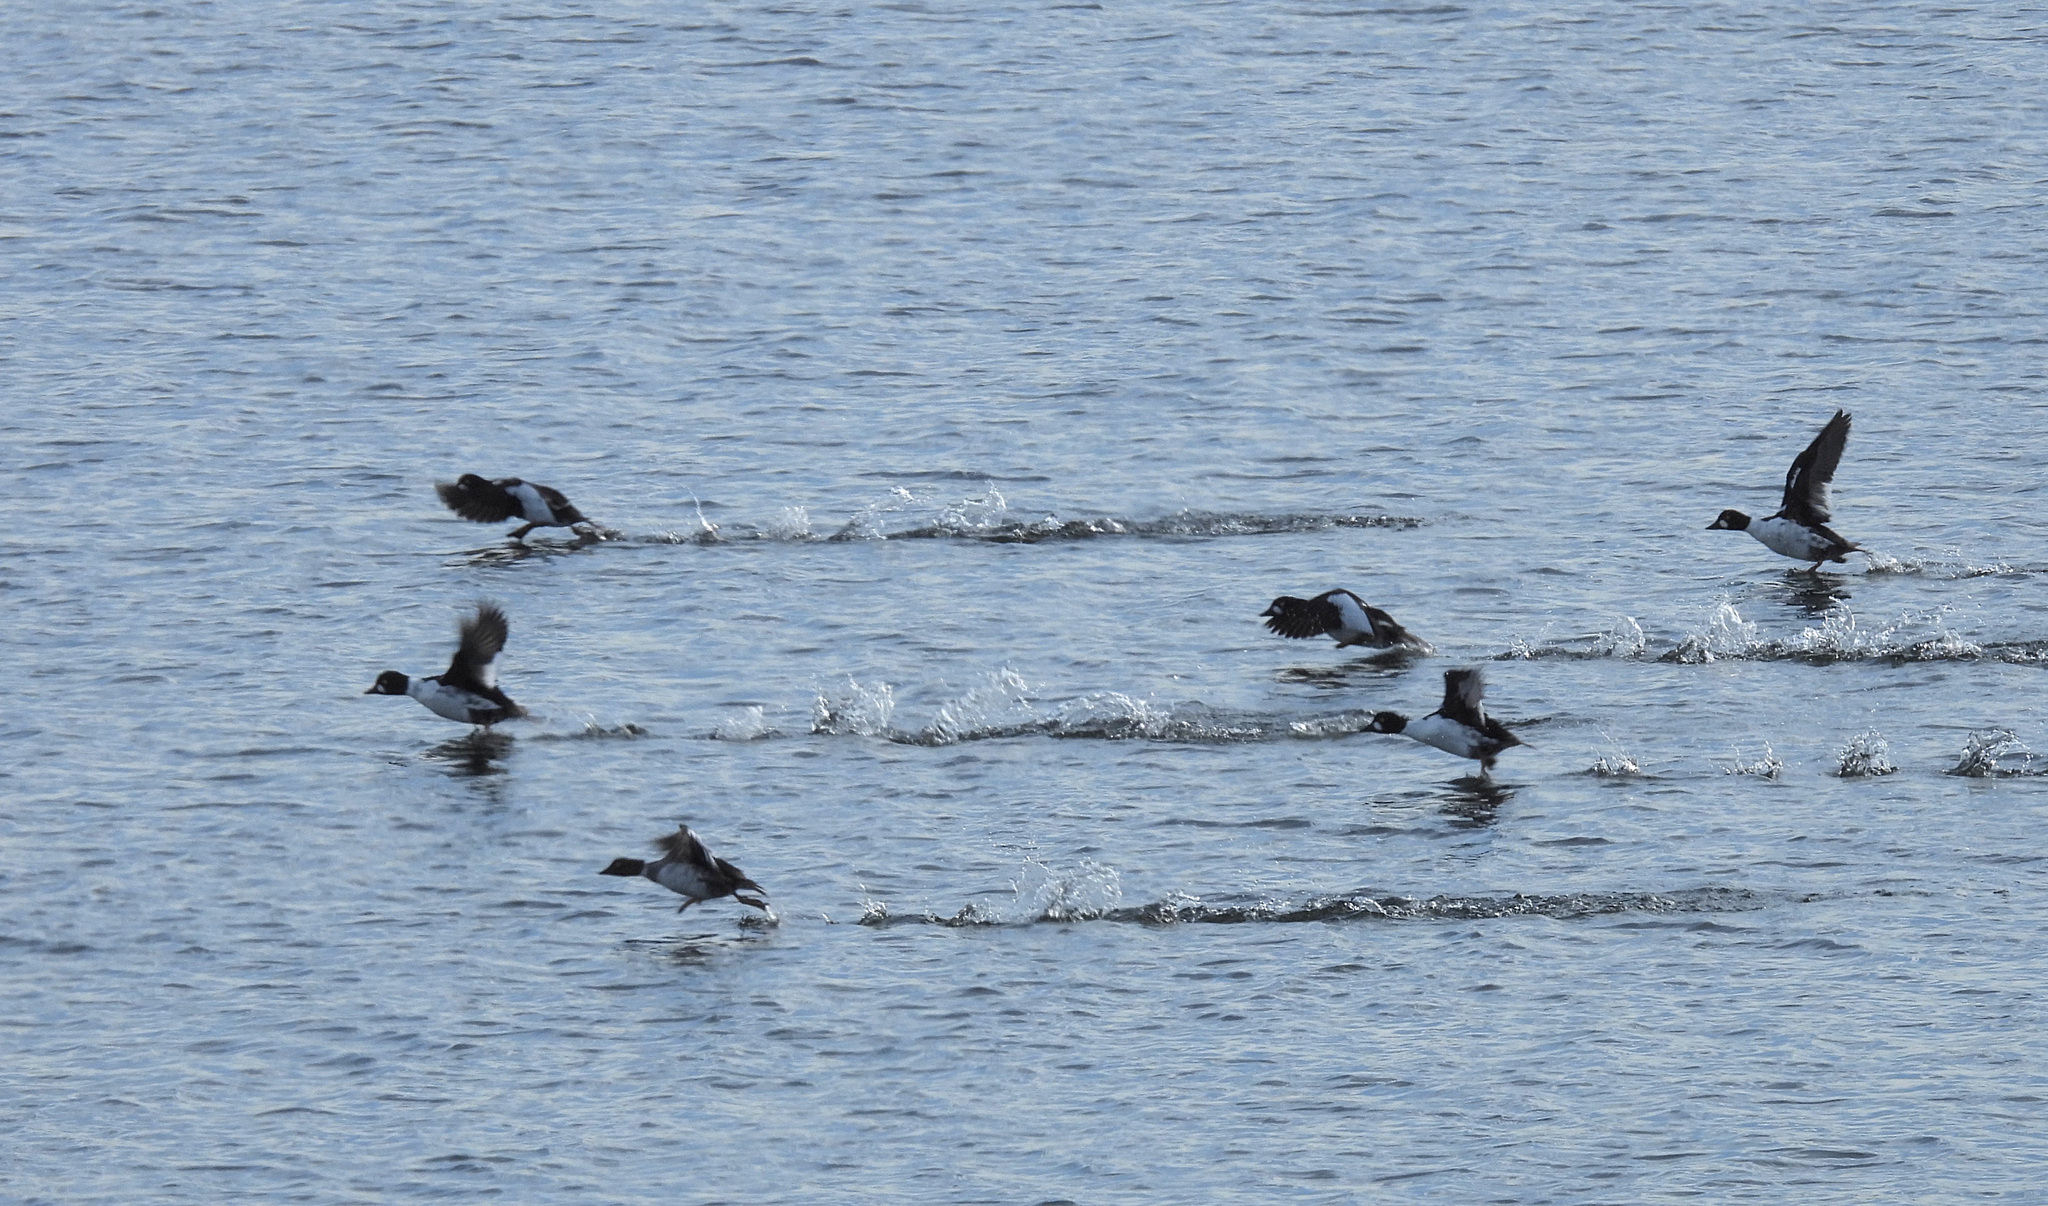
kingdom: Animalia
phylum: Chordata
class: Aves
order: Anseriformes
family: Anatidae
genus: Bucephala
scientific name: Bucephala clangula
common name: Common goldeneye
